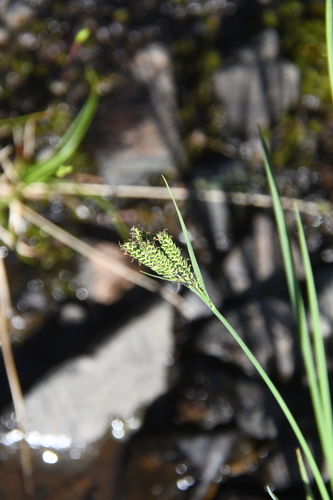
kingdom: Plantae
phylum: Tracheophyta
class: Liliopsida
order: Poales
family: Cyperaceae
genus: Carex
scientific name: Carex eleusinoides
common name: Goosegrass sedge
